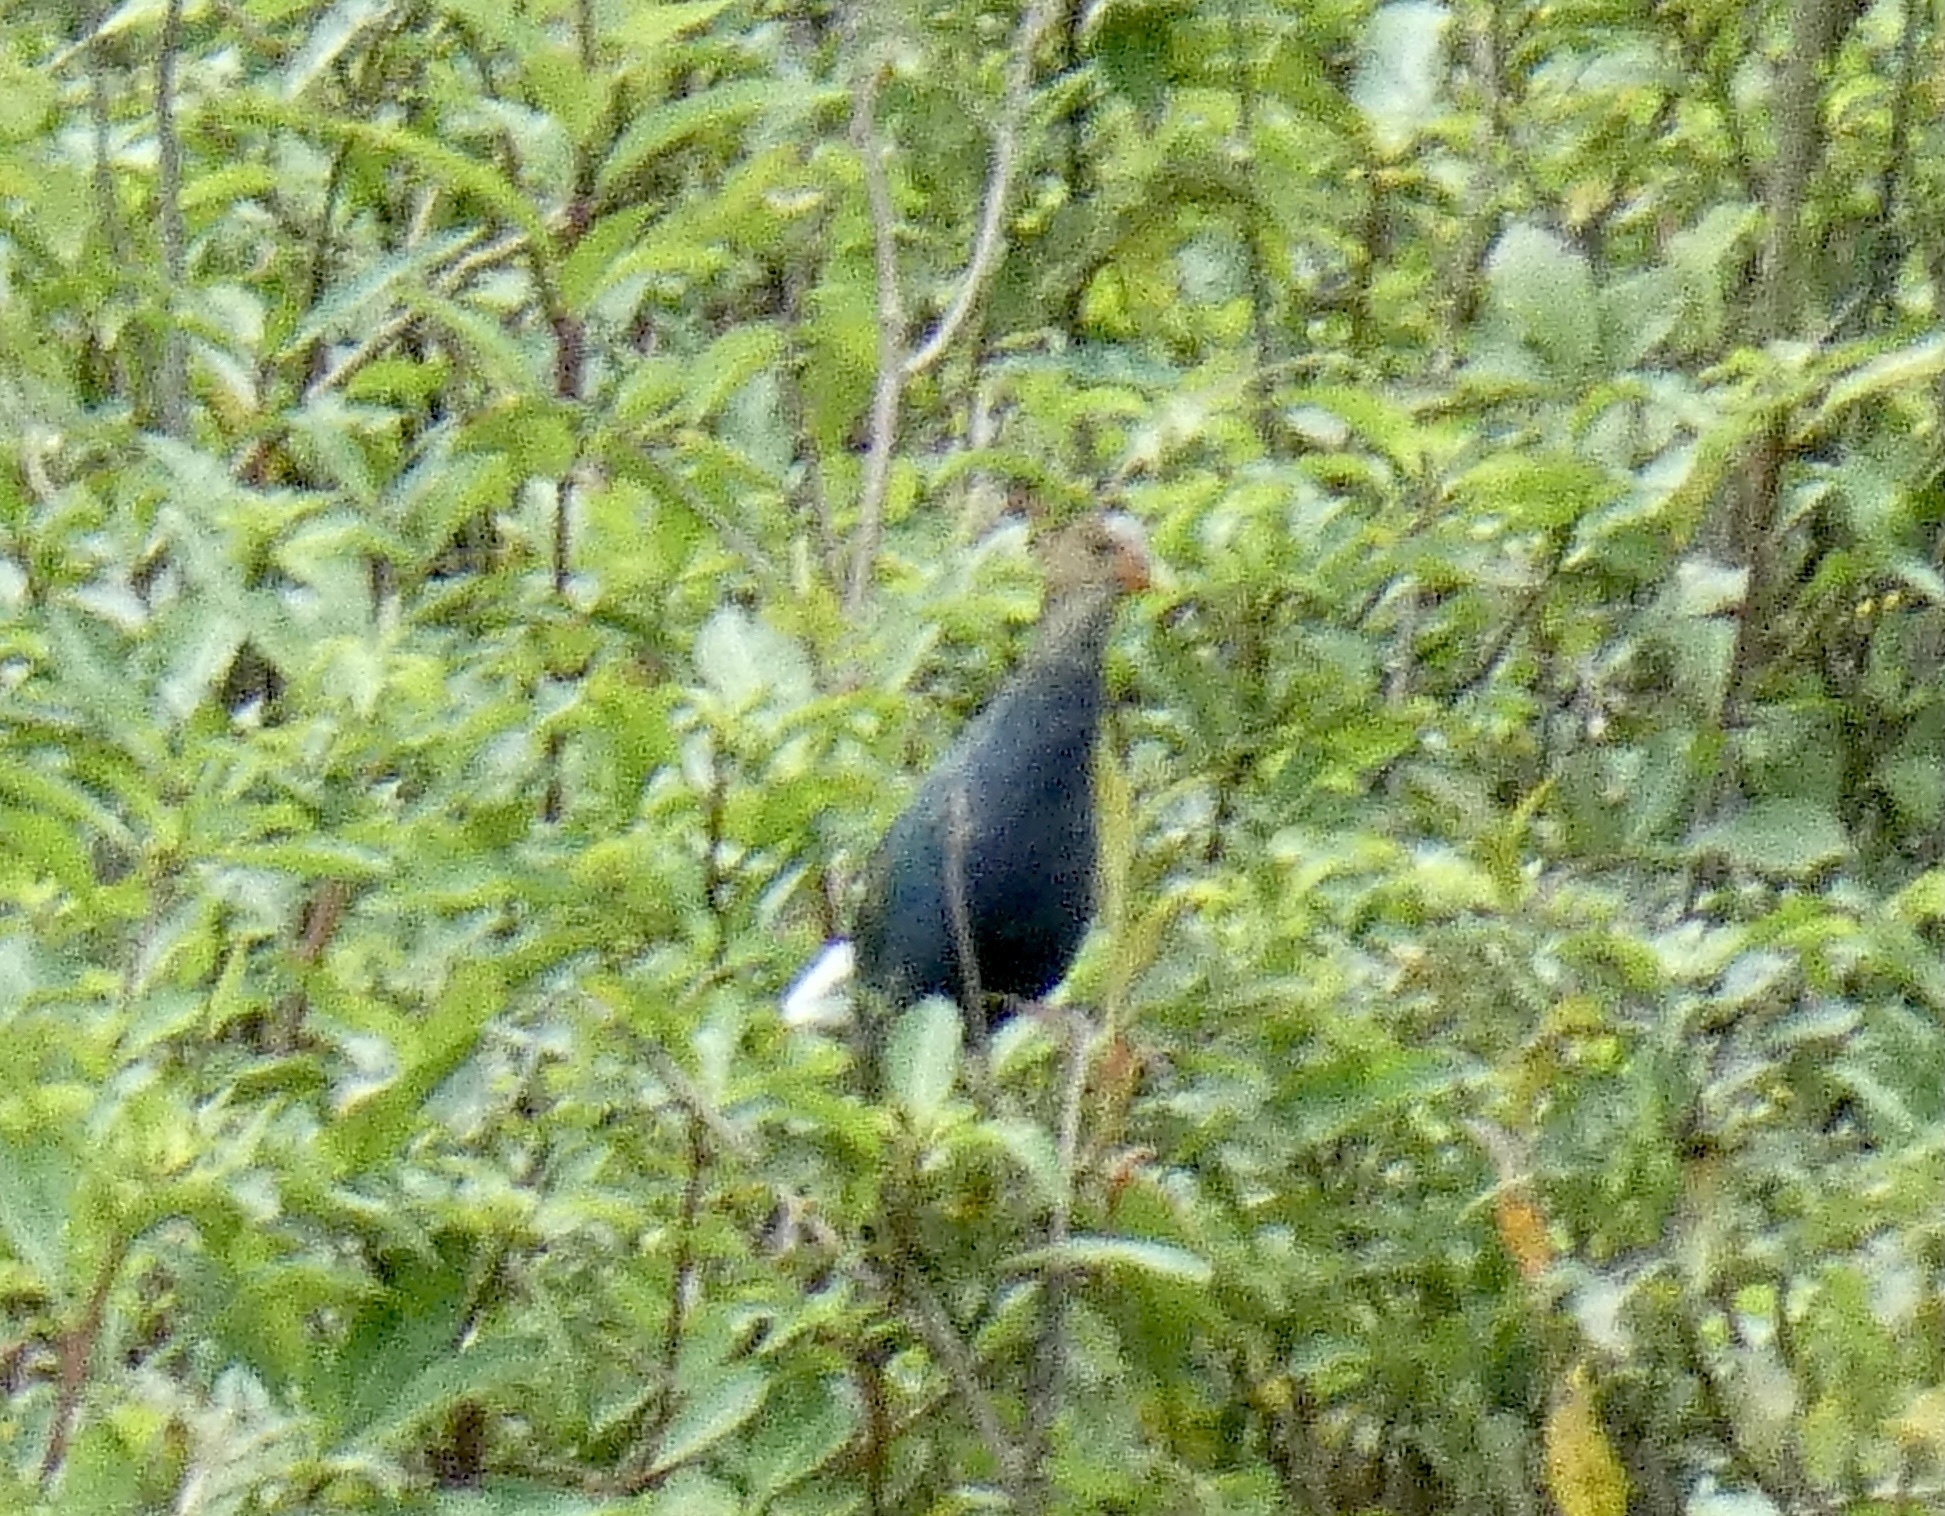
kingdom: Animalia
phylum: Chordata
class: Aves
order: Gruiformes
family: Rallidae
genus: Porphyrio
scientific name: Porphyrio martinica
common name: Purple gallinule
